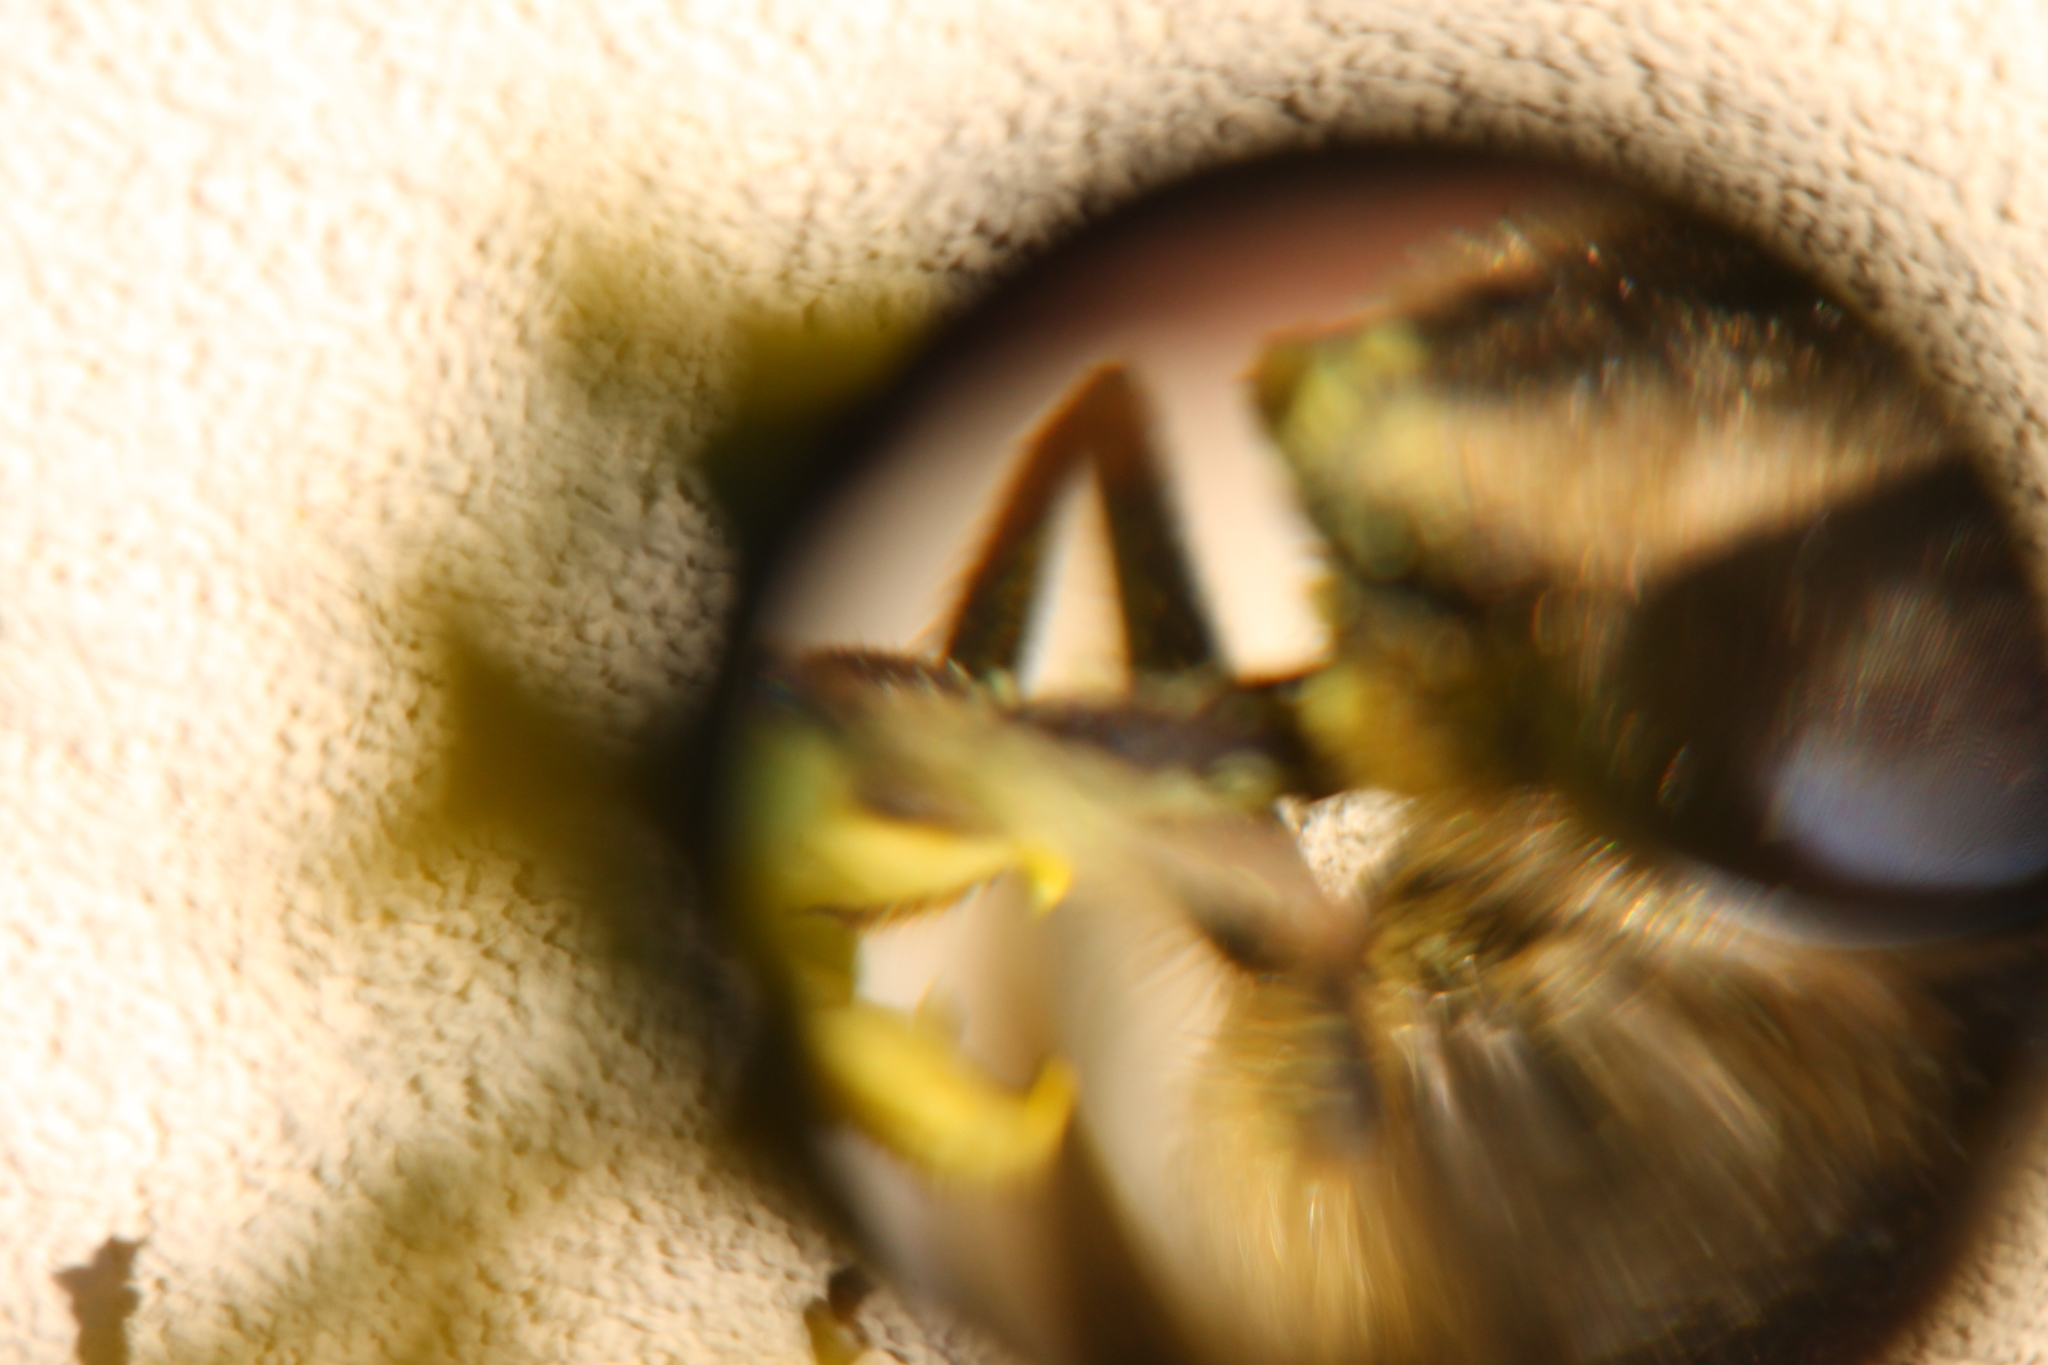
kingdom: Animalia
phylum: Arthropoda
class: Insecta
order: Diptera
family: Syrphidae
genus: Eristalis
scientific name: Eristalis tenax
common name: Drone fly
